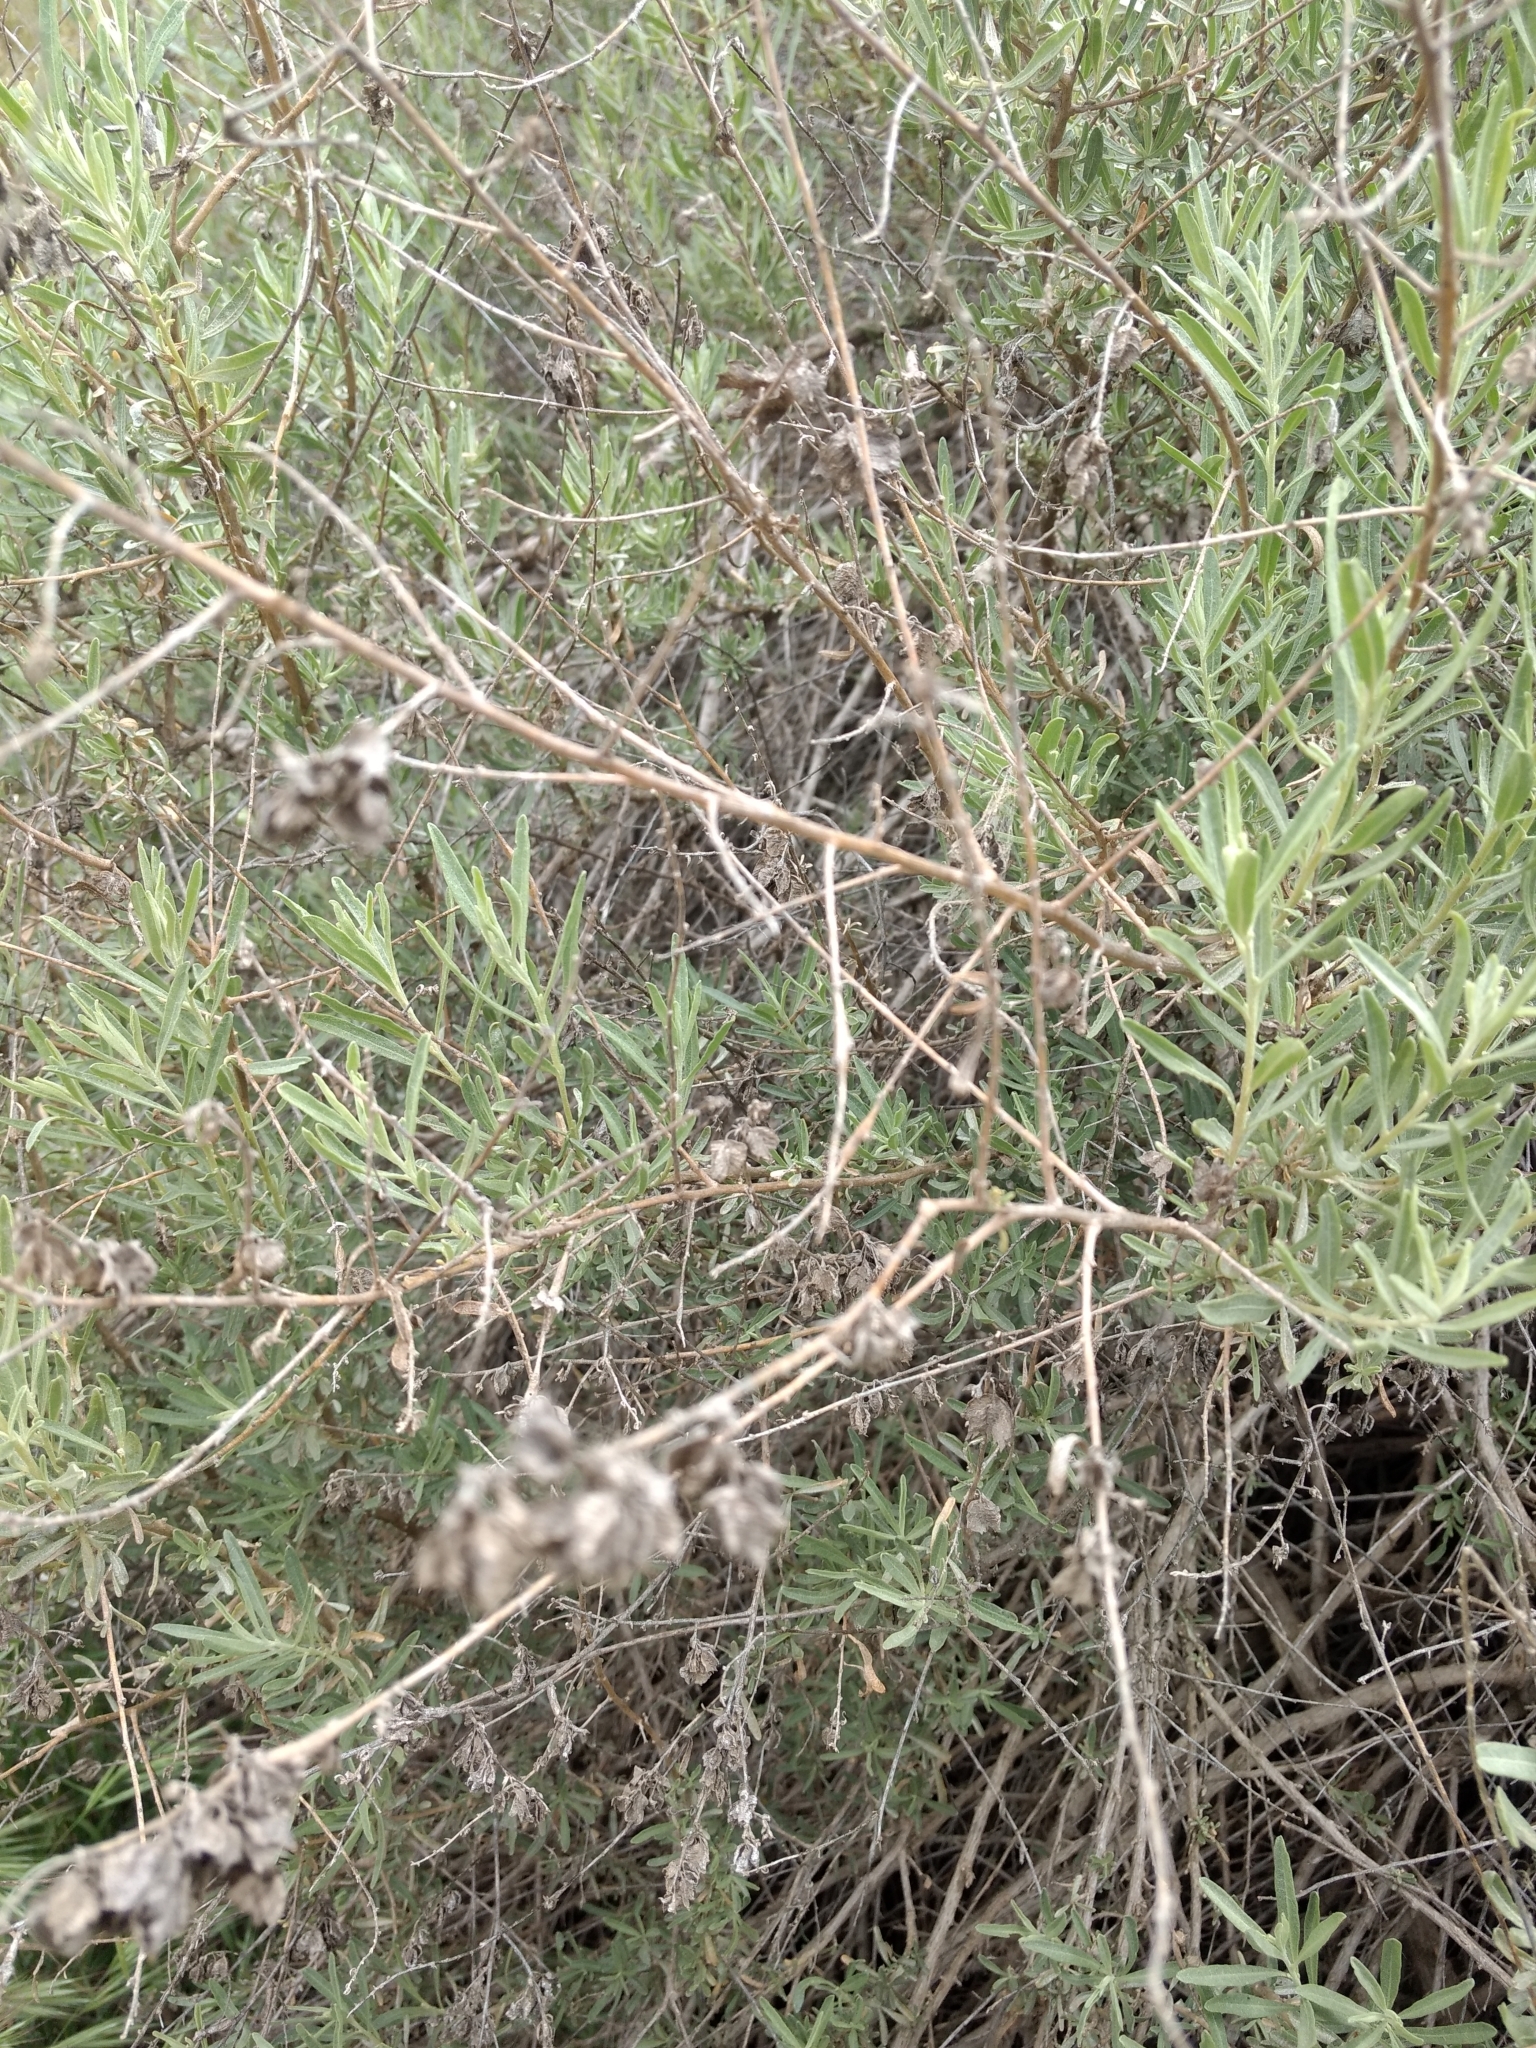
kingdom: Plantae
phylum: Tracheophyta
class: Magnoliopsida
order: Caryophyllales
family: Amaranthaceae
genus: Atriplex
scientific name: Atriplex canescens
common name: Four-wing saltbush
